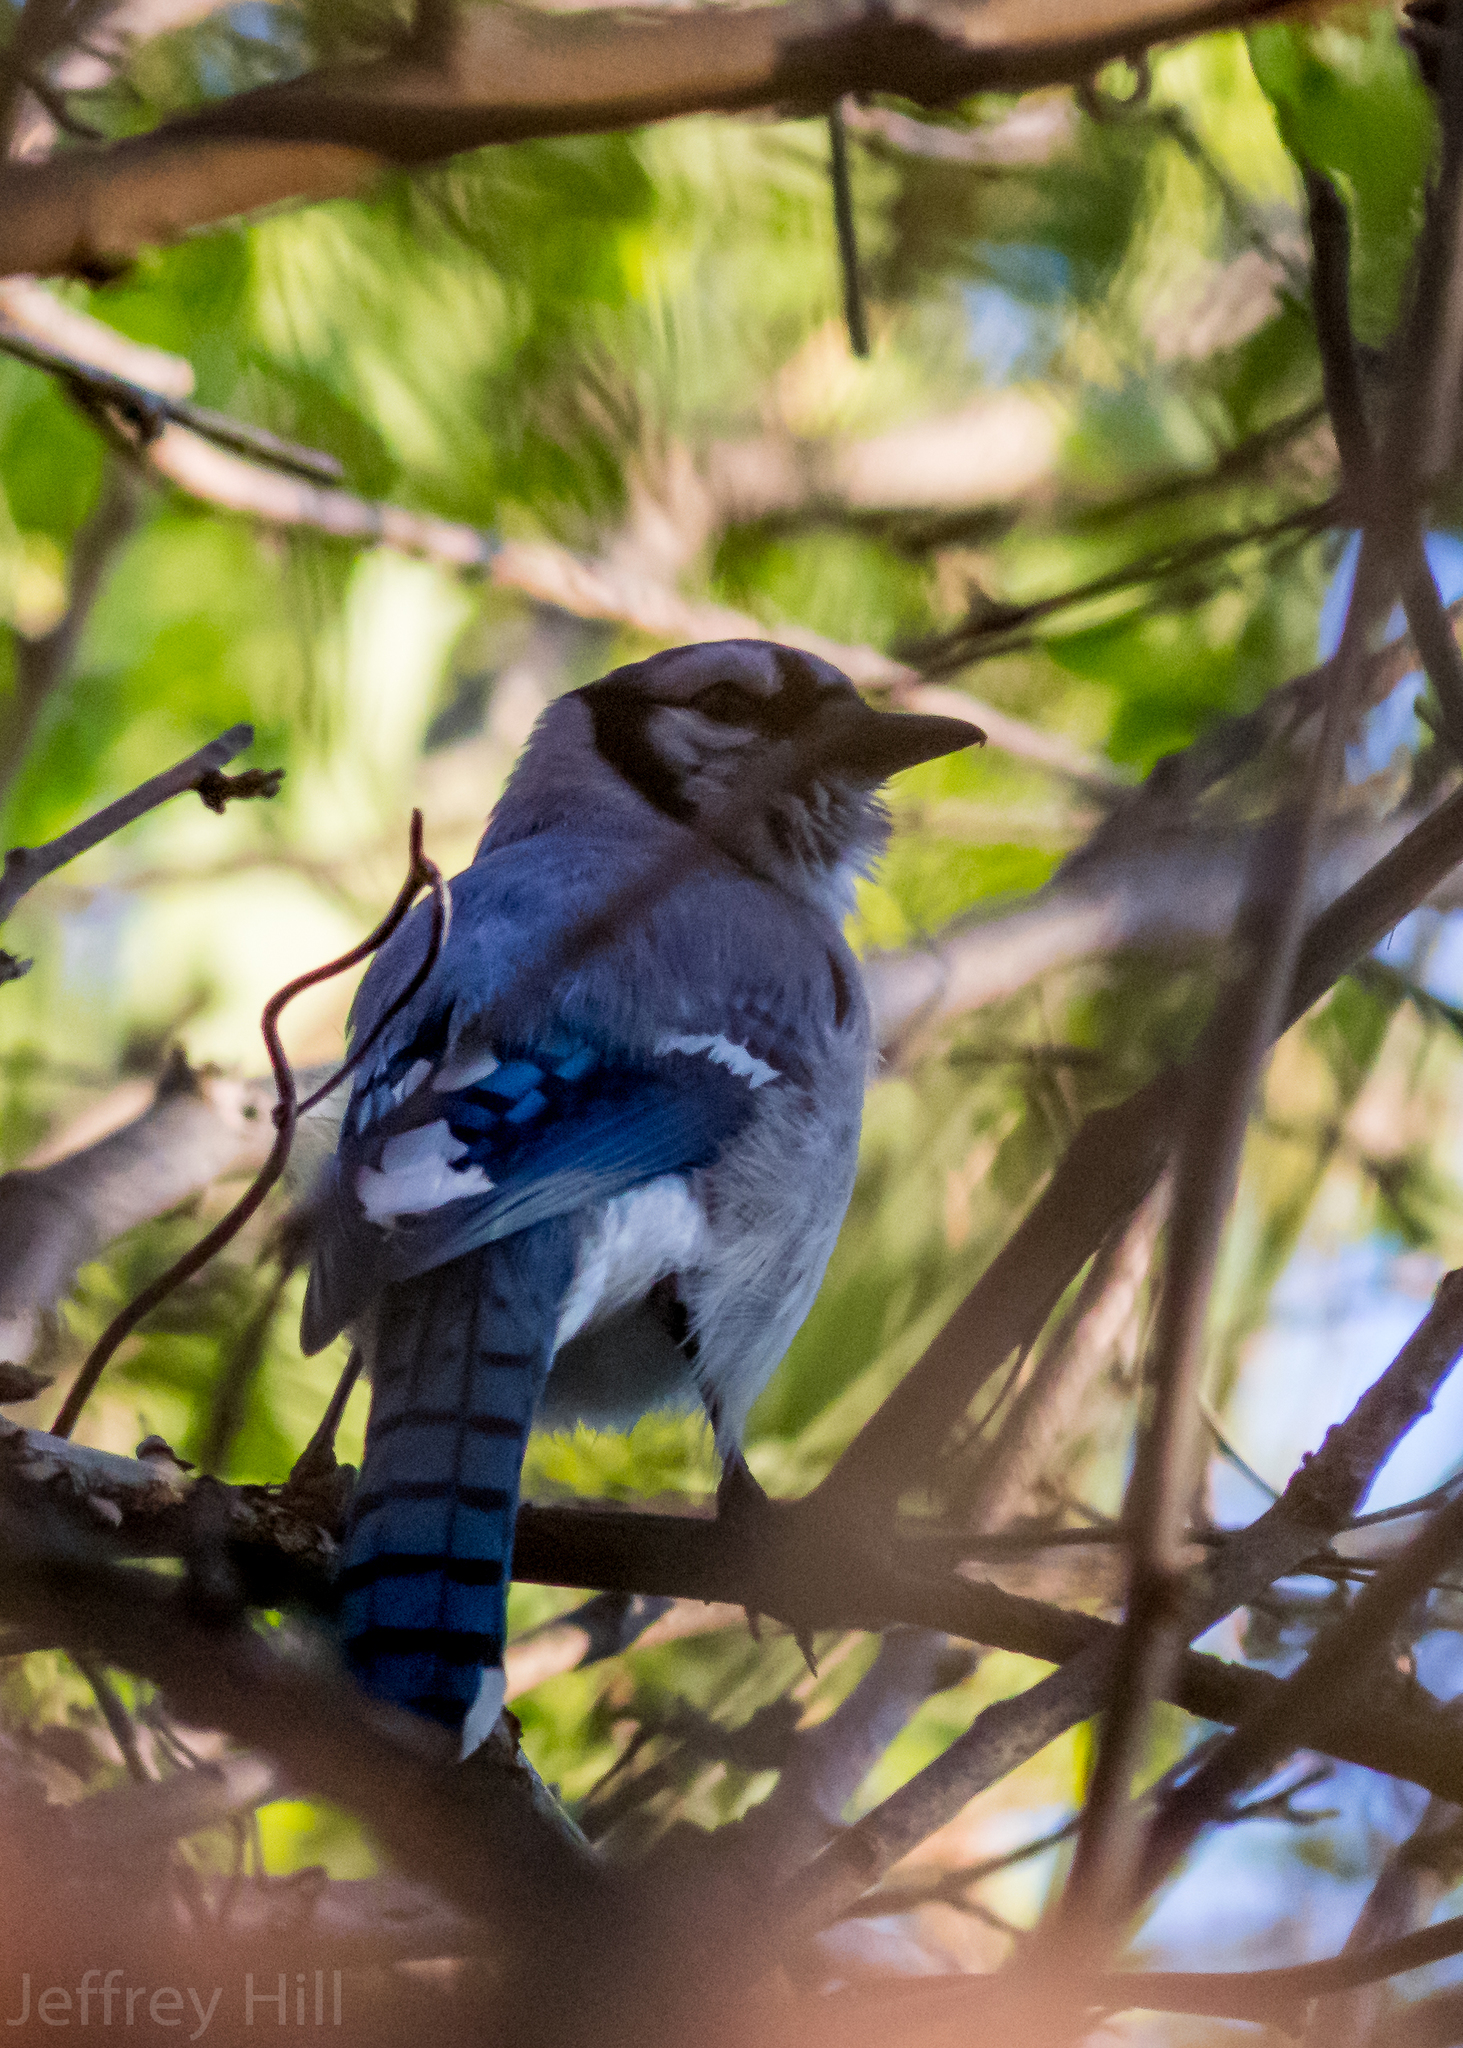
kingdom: Animalia
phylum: Chordata
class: Aves
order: Passeriformes
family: Corvidae
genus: Cyanocitta
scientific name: Cyanocitta cristata
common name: Blue jay
